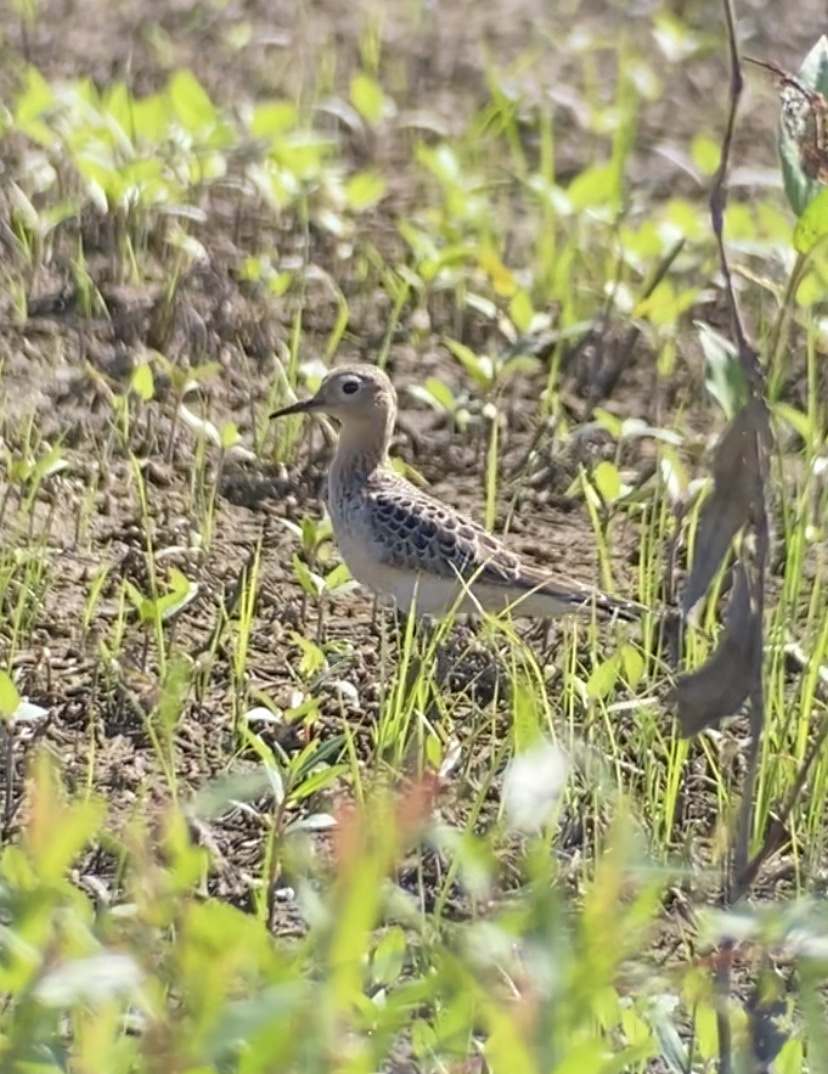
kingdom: Animalia
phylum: Chordata
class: Aves
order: Charadriiformes
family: Scolopacidae
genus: Calidris
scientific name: Calidris subruficollis
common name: Buff-breasted sandpiper
